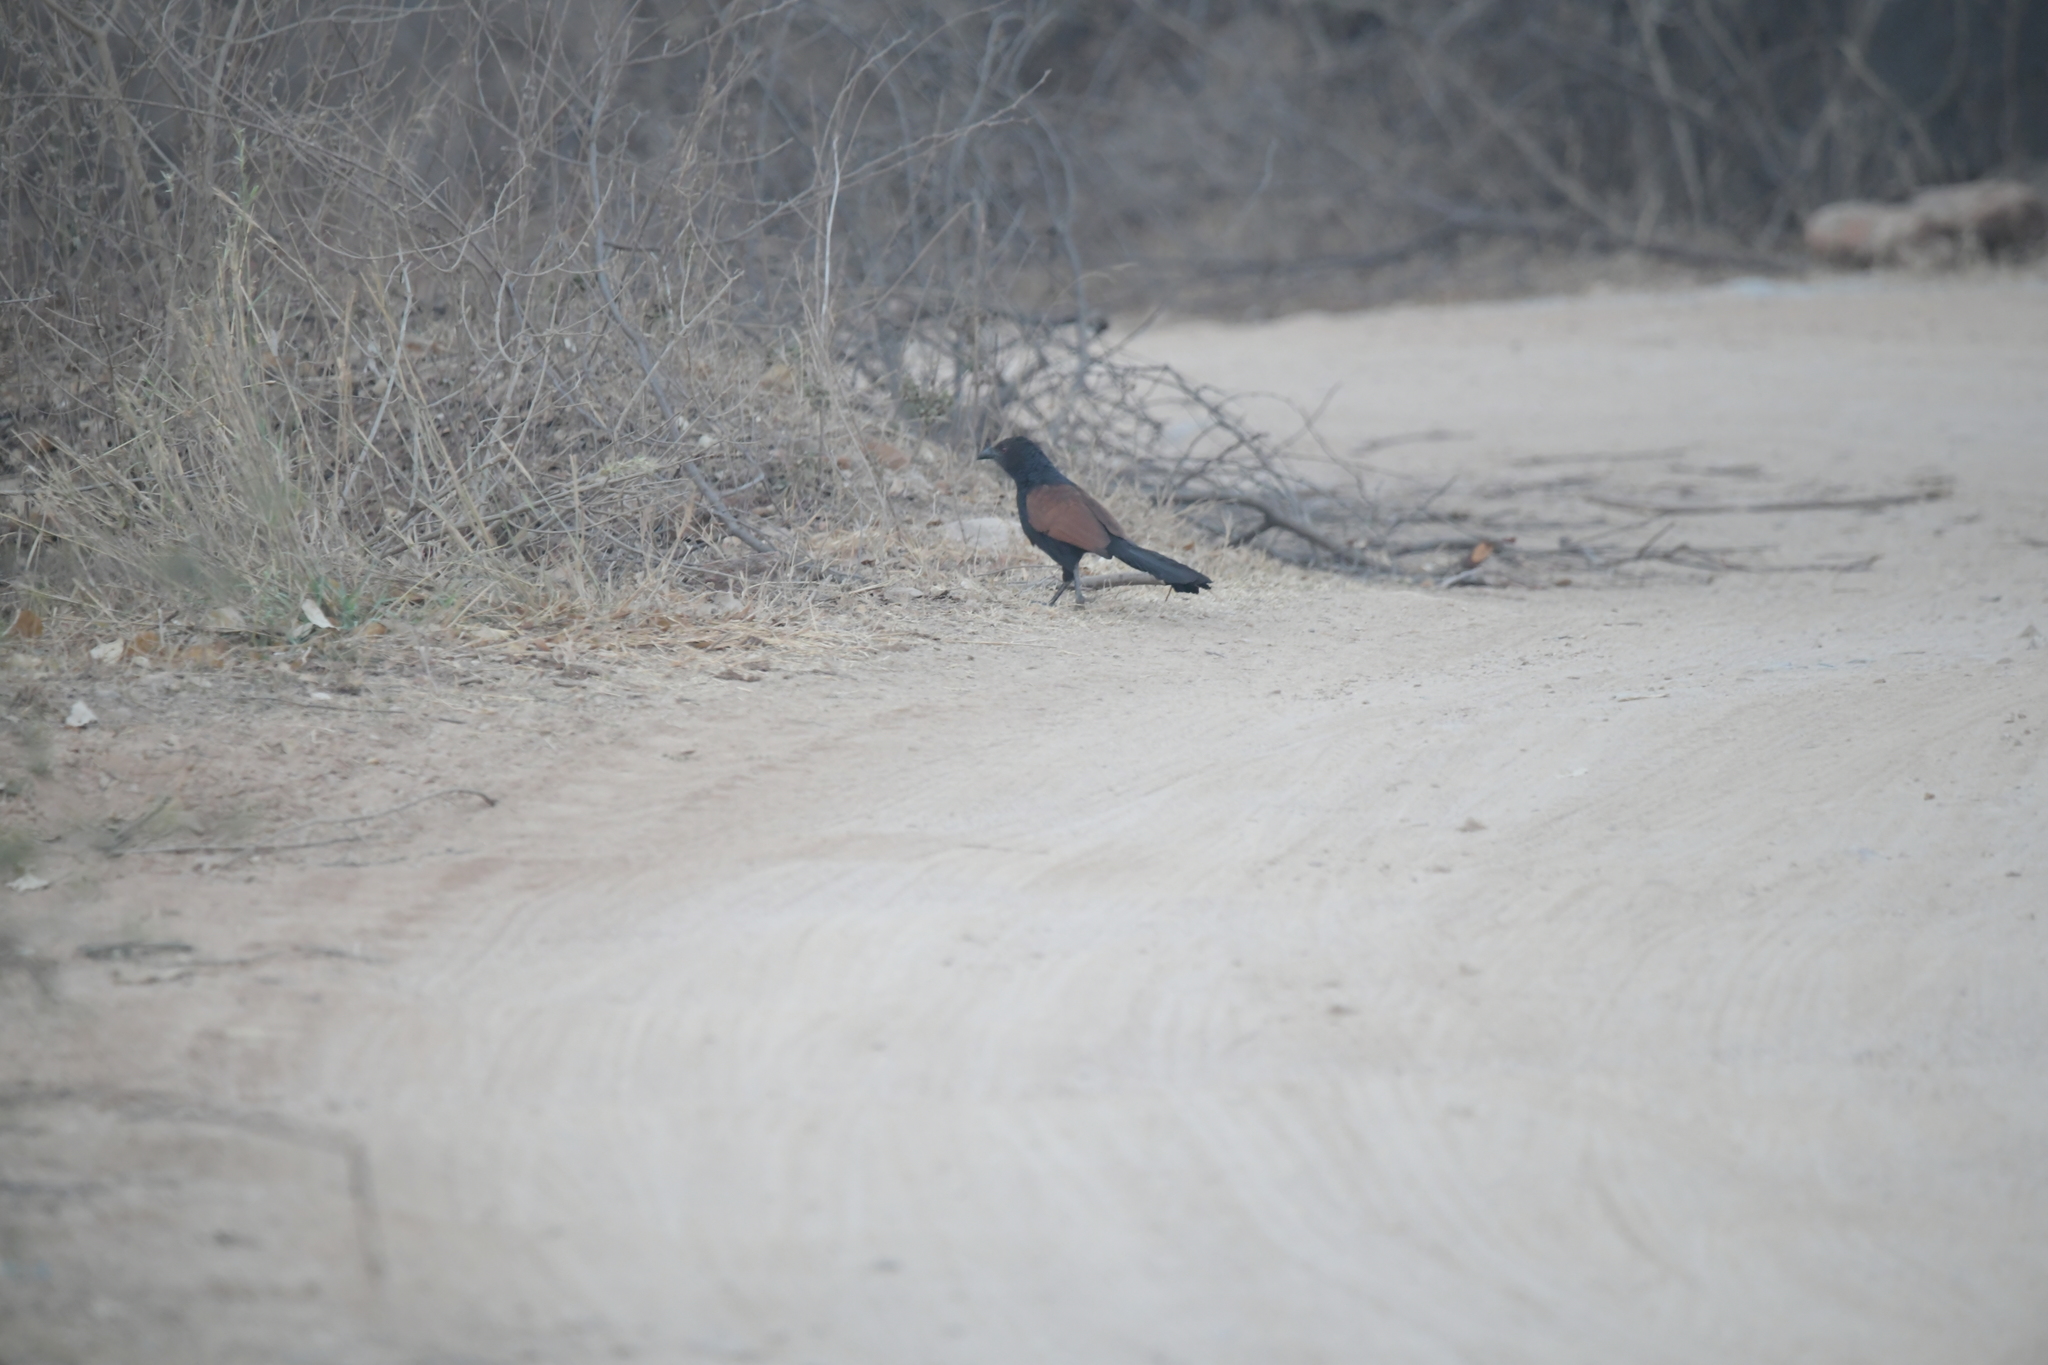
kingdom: Animalia
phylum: Chordata
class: Aves
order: Cuculiformes
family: Cuculidae
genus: Centropus
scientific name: Centropus sinensis
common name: Greater coucal
